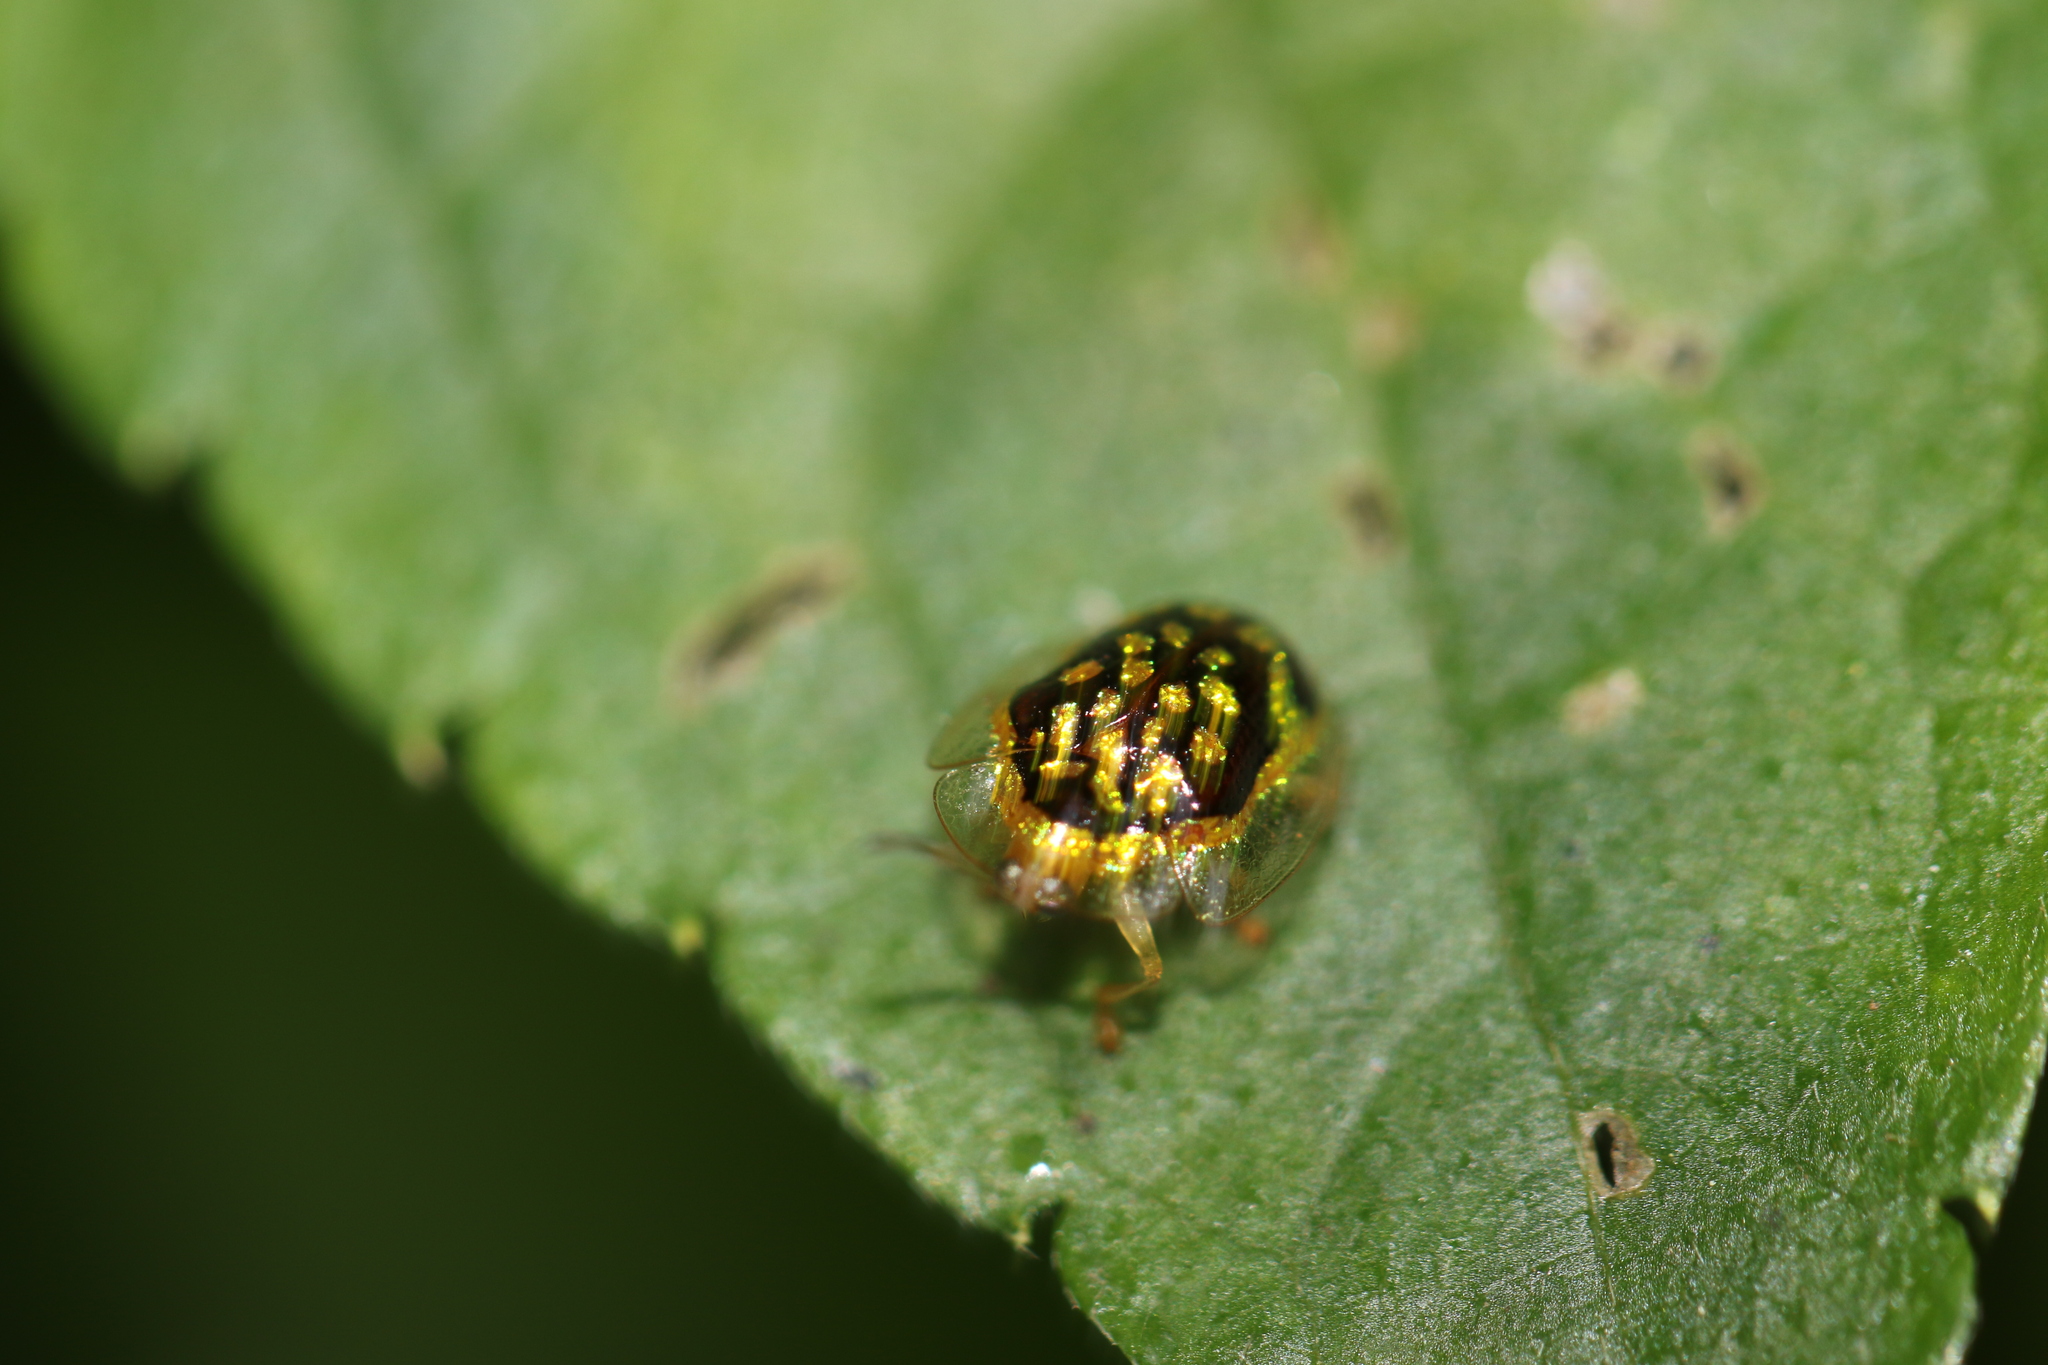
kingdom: Animalia
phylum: Arthropoda
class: Insecta
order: Coleoptera
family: Chrysomelidae
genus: Microctenochira
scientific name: Microctenochira brasiliensis
